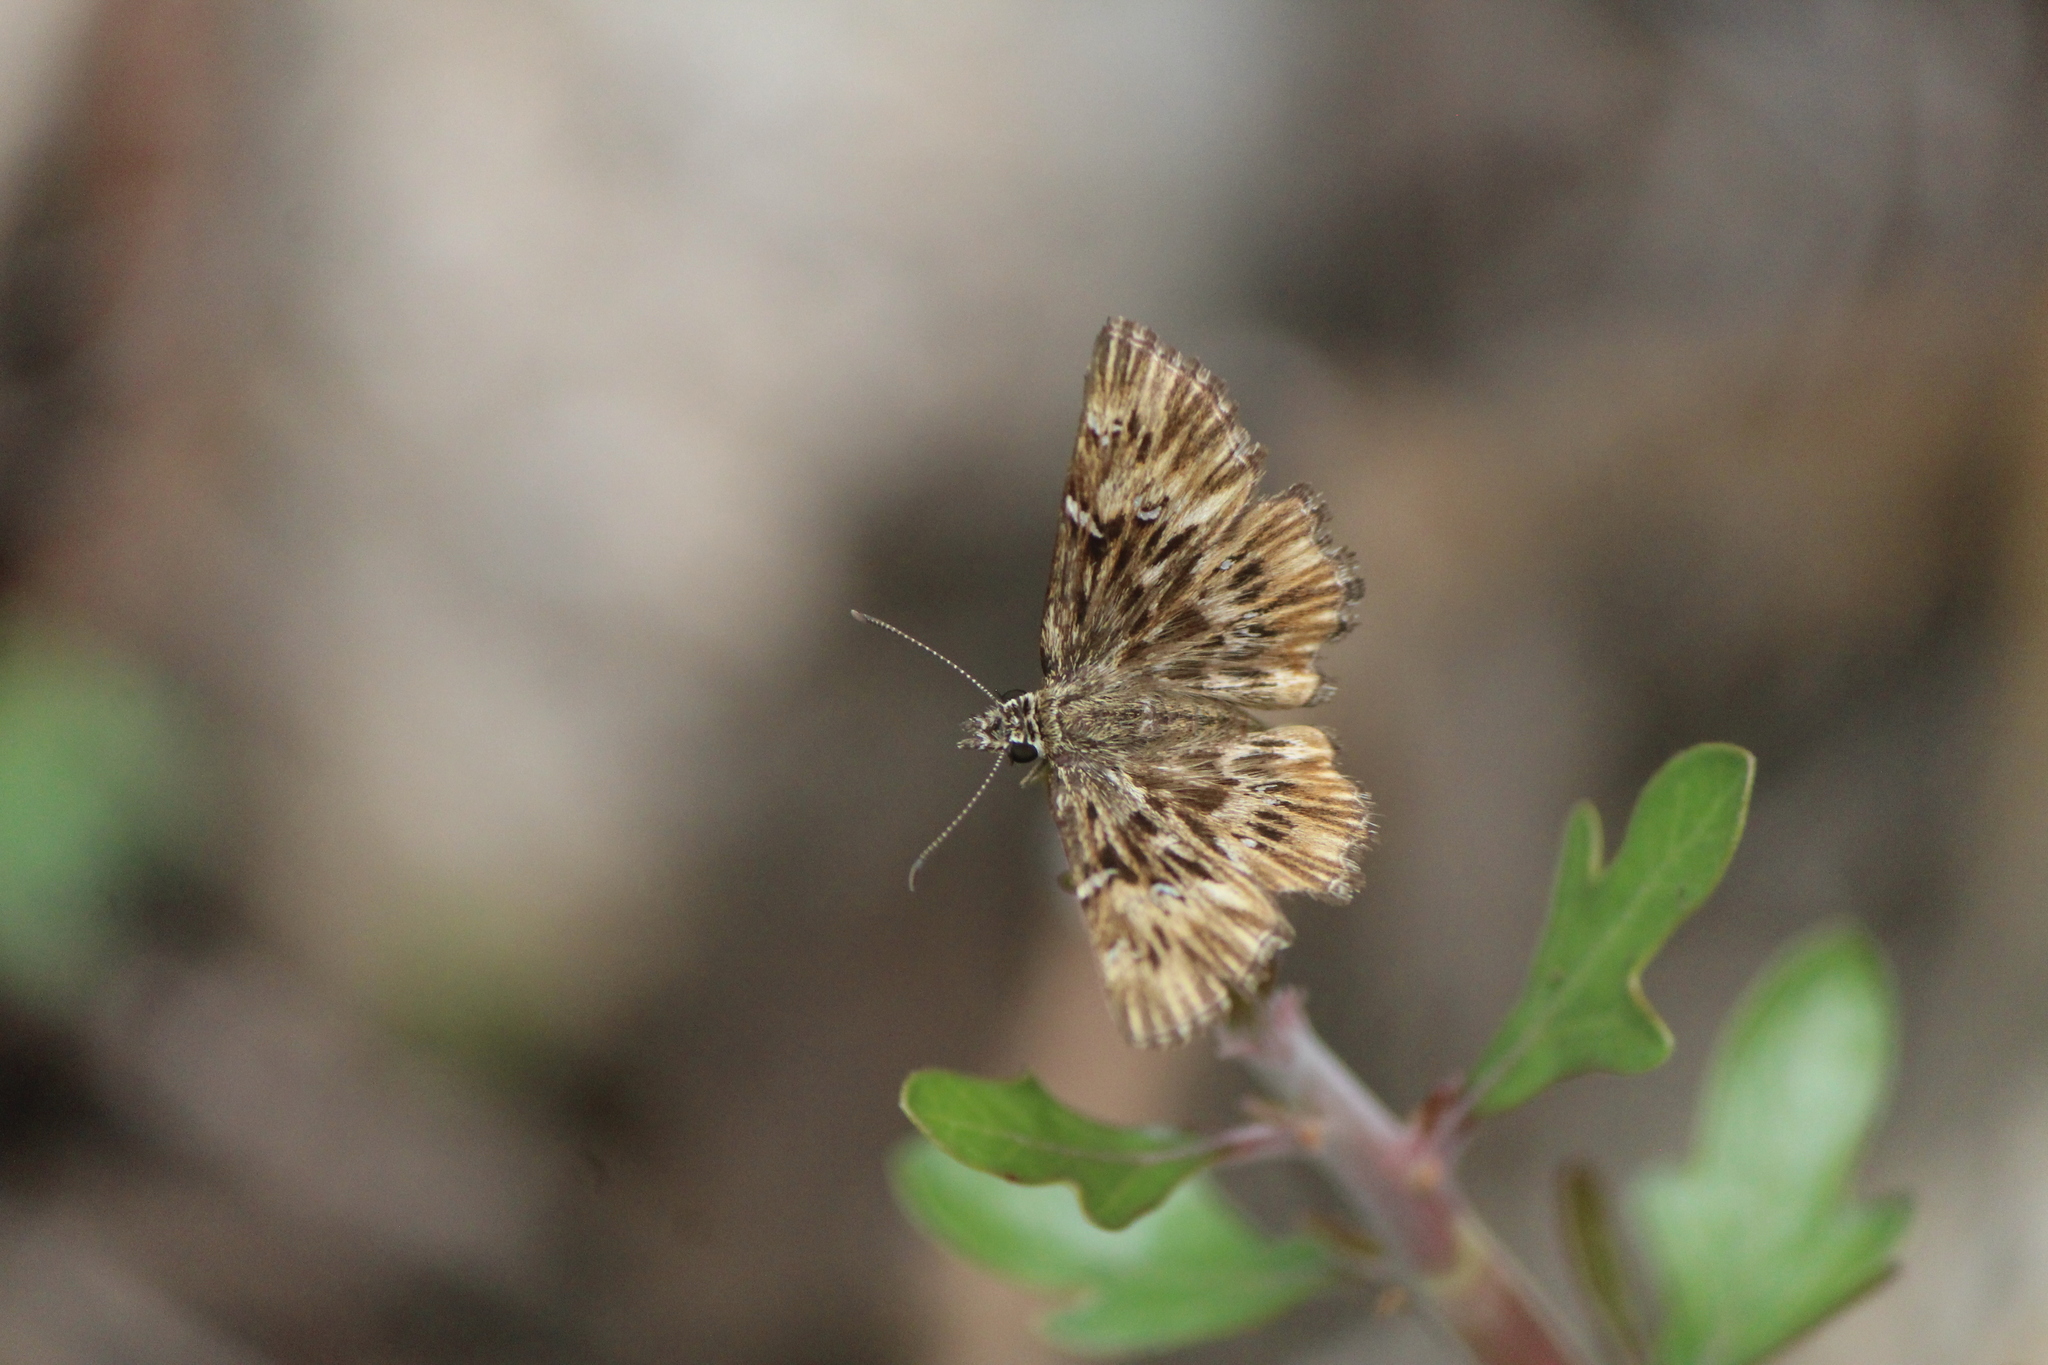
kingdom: Animalia
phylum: Arthropoda
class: Insecta
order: Lepidoptera
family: Hesperiidae
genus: Celotes
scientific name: Celotes spurcus
